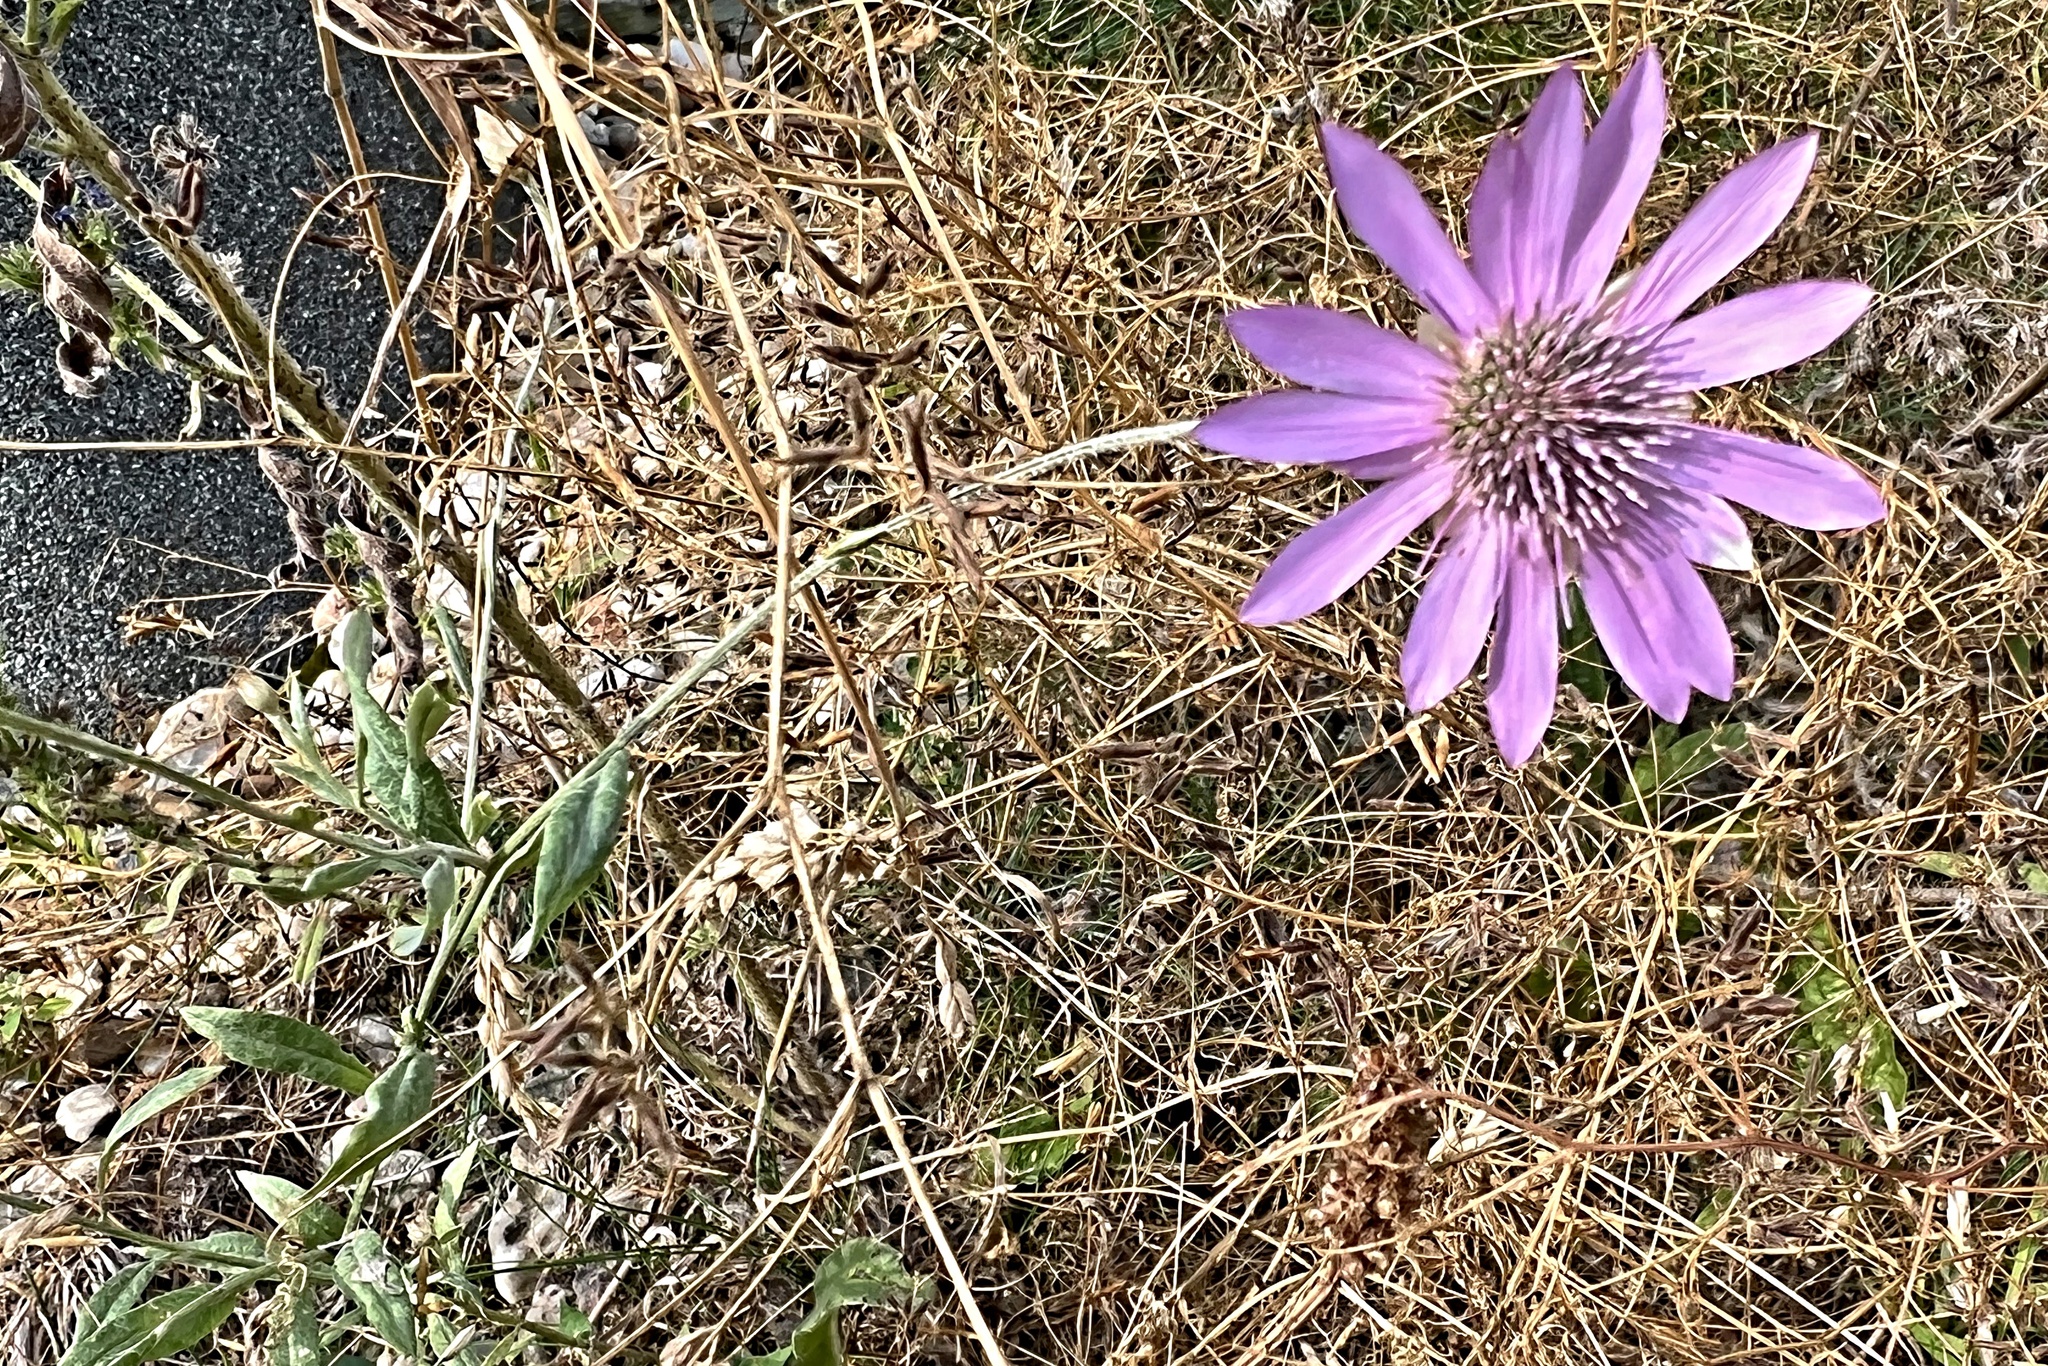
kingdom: Plantae
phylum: Tracheophyta
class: Magnoliopsida
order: Asterales
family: Asteraceae
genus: Xeranthemum
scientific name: Xeranthemum annuum
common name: Immortelle
